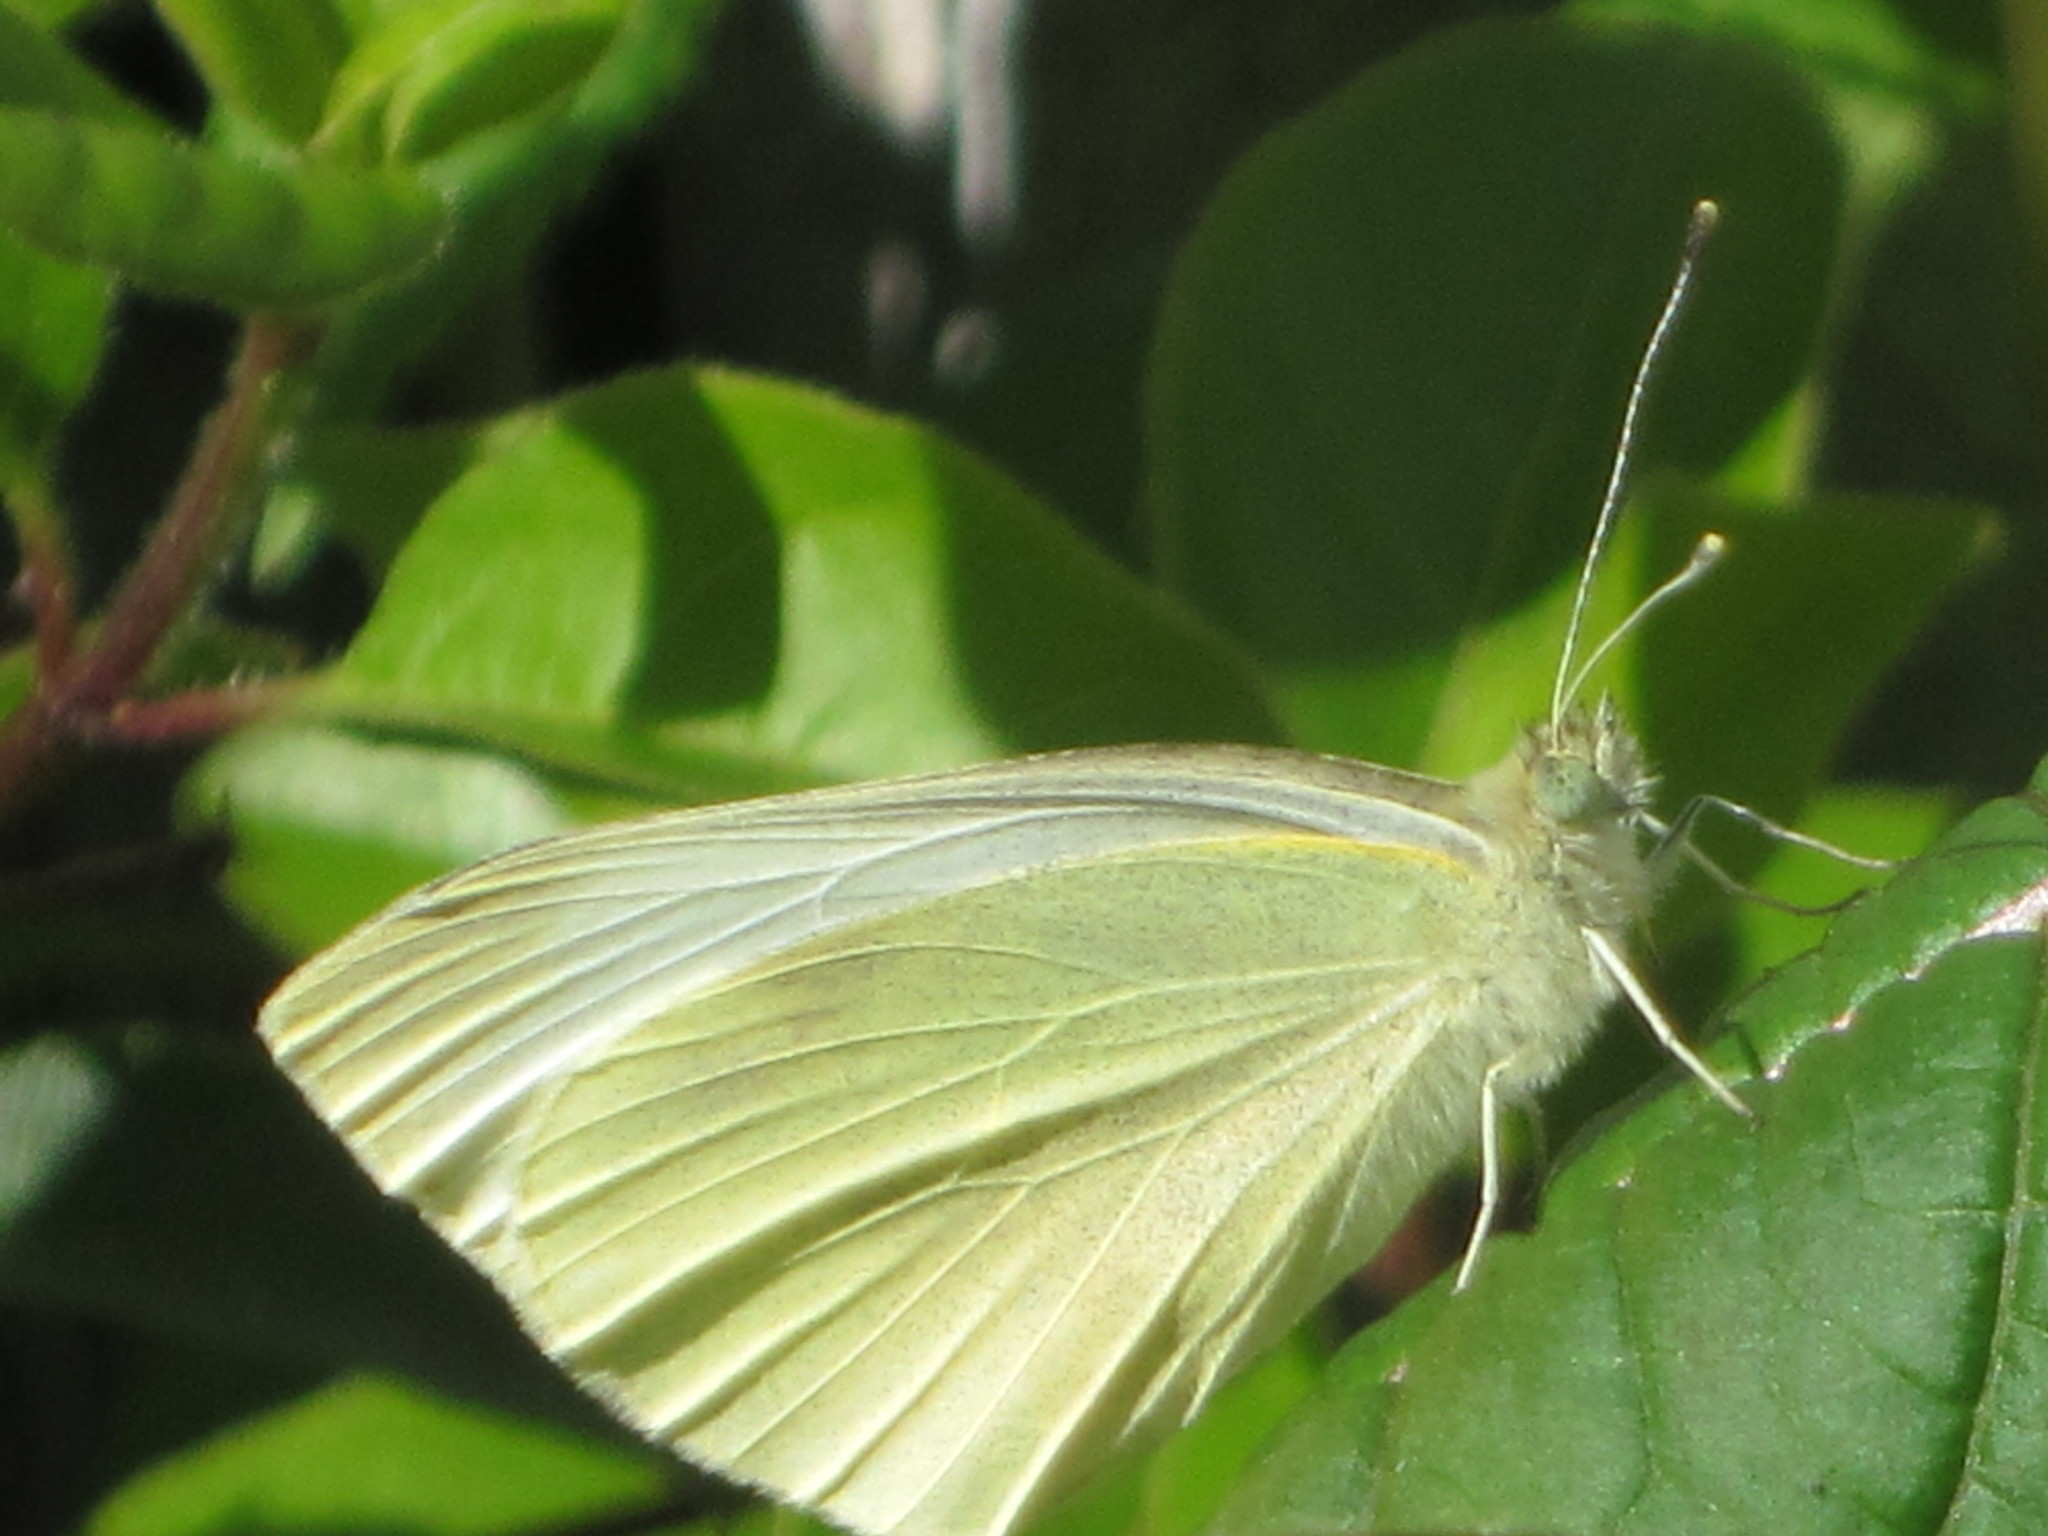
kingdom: Animalia
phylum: Arthropoda
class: Insecta
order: Lepidoptera
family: Pieridae
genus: Pieris
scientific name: Pieris rapae
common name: Small white
